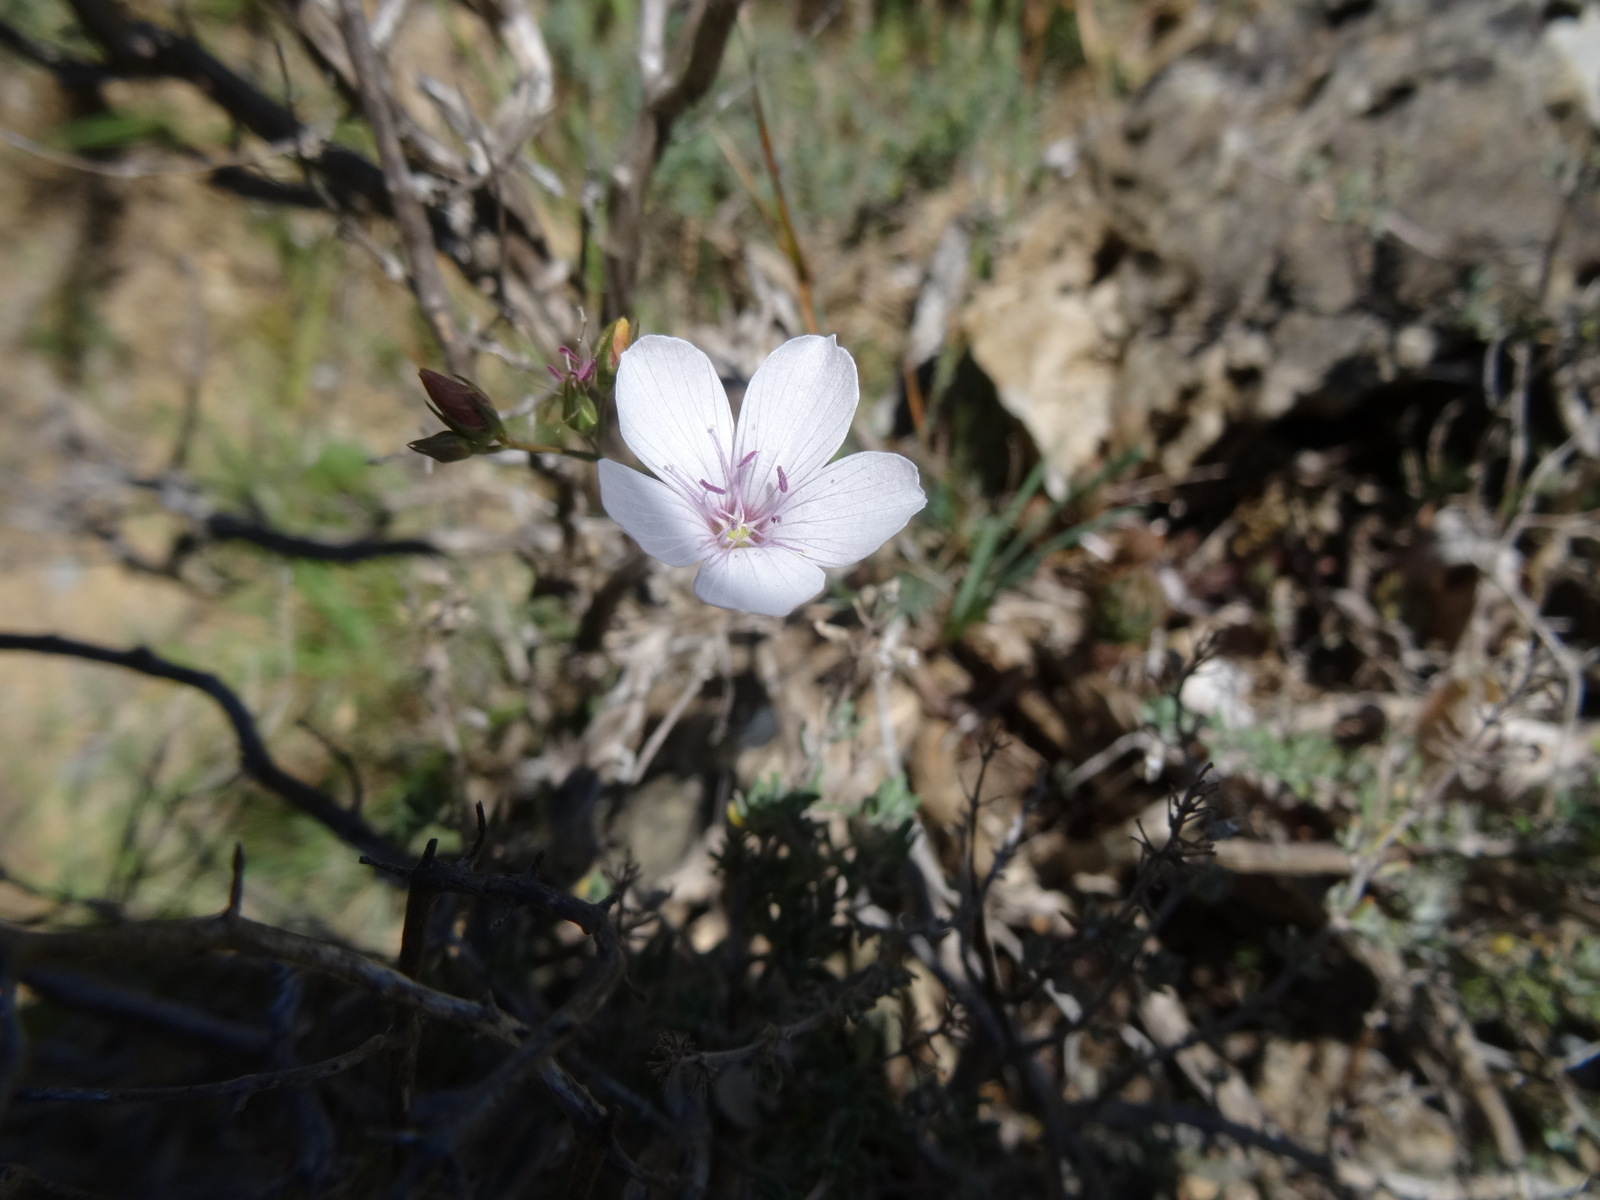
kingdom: Plantae
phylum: Tracheophyta
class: Magnoliopsida
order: Malpighiales
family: Linaceae
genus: Linum
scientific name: Linum tenuifolium
